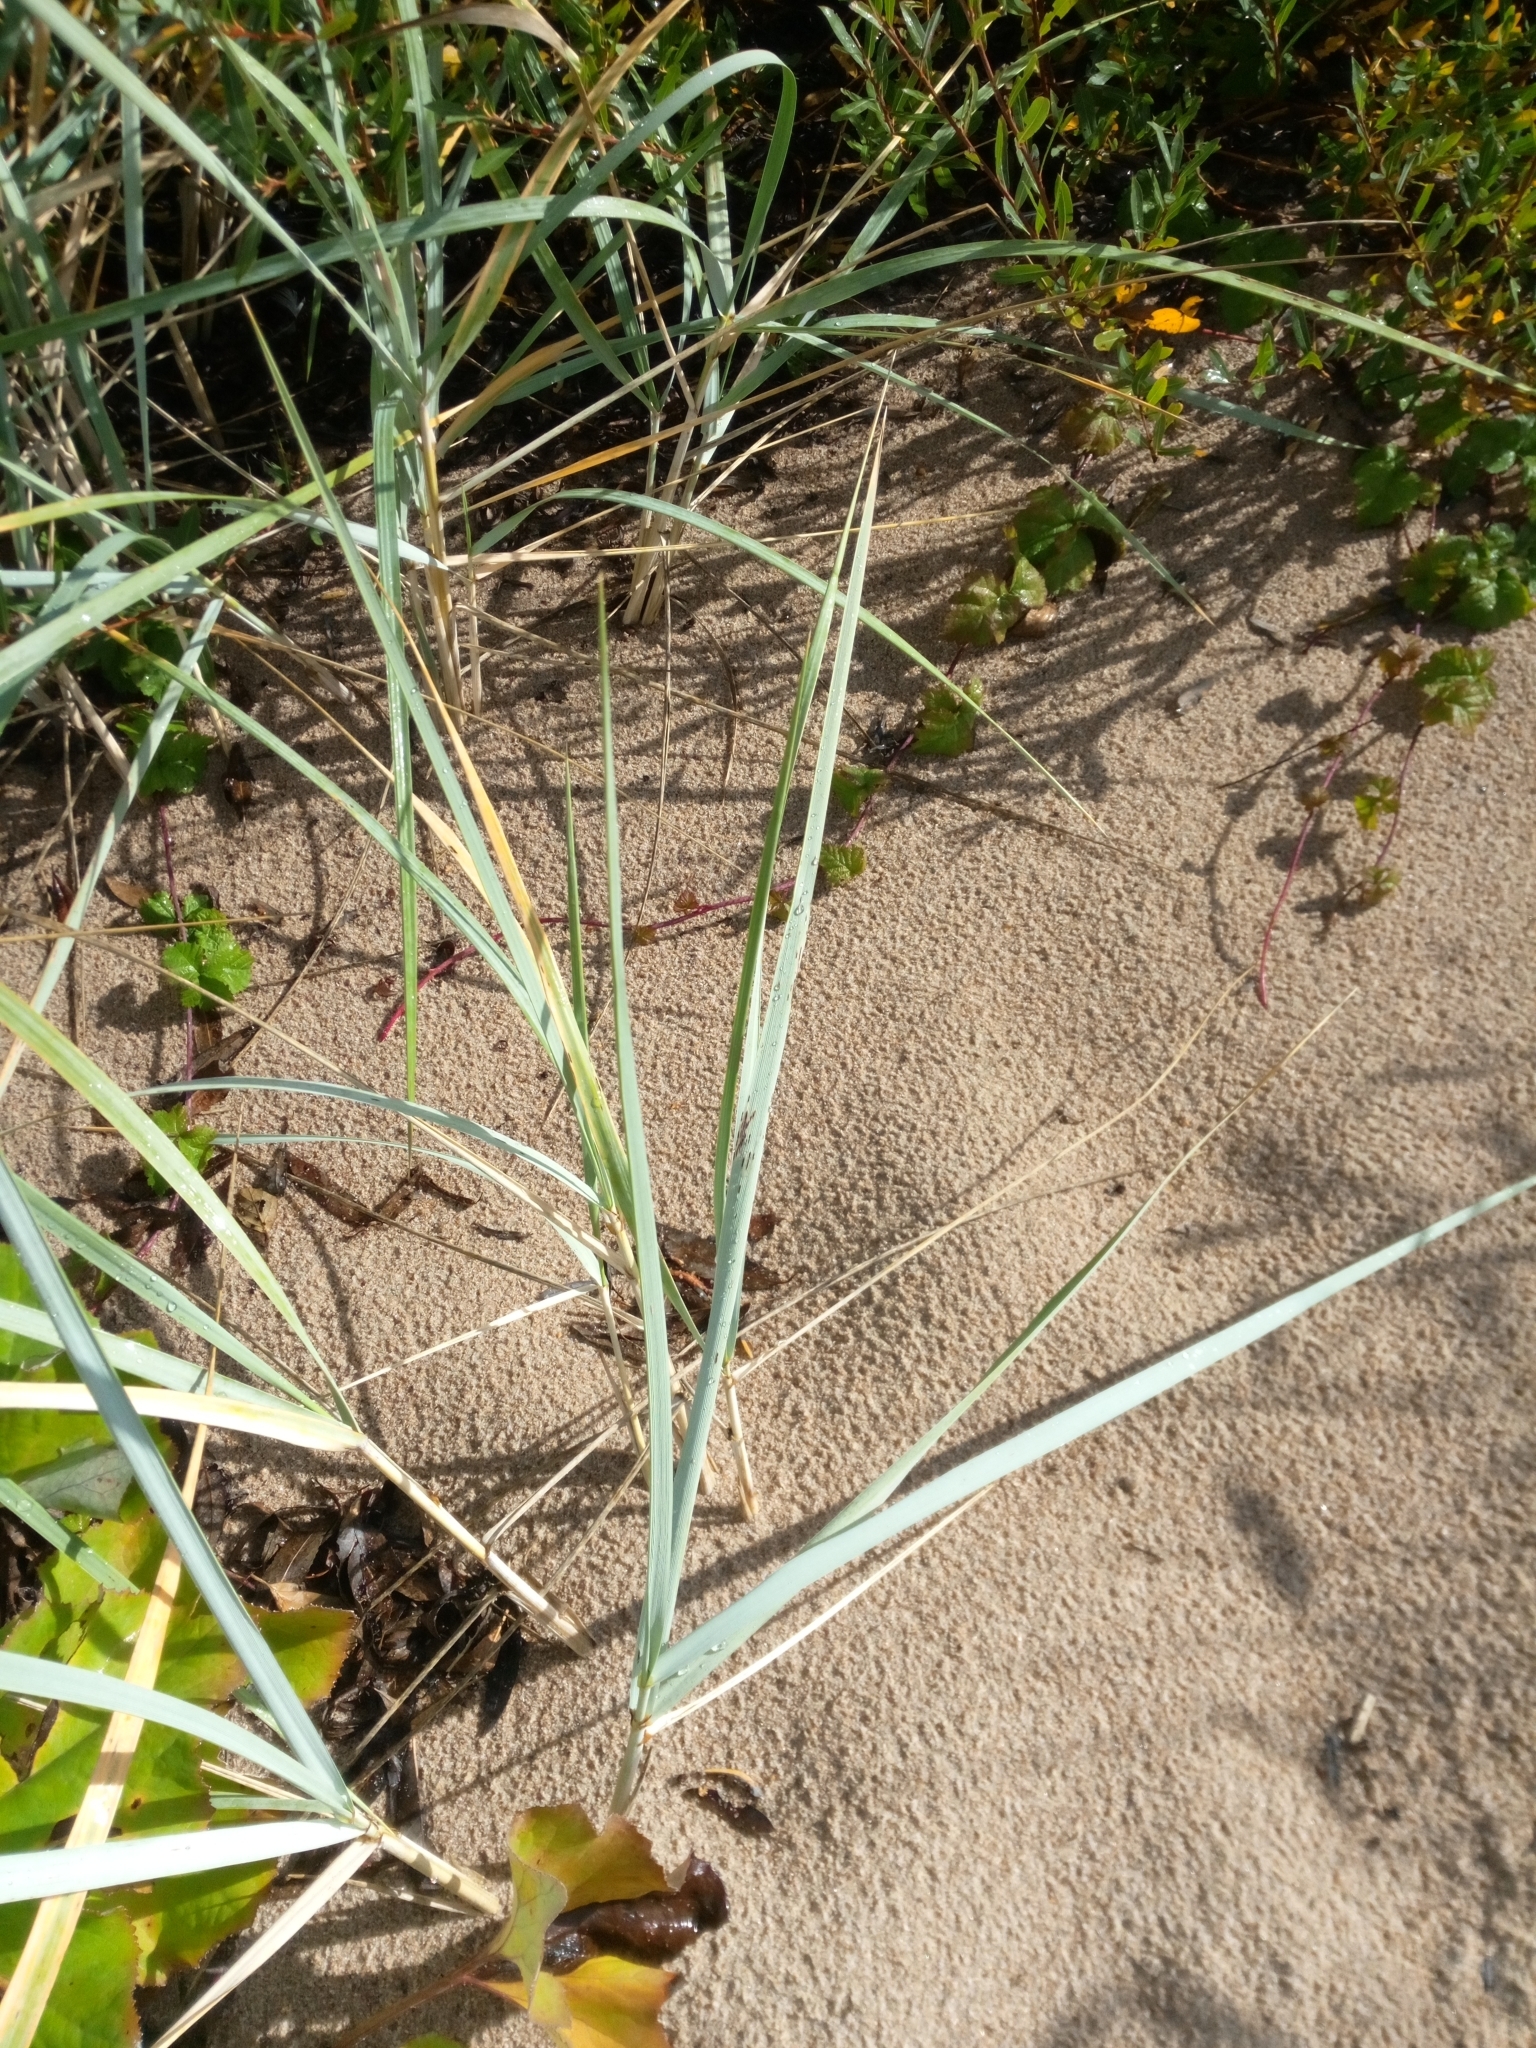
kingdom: Plantae
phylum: Tracheophyta
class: Liliopsida
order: Poales
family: Poaceae
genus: Leymus
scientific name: Leymus arenarius
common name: Lyme-grass
